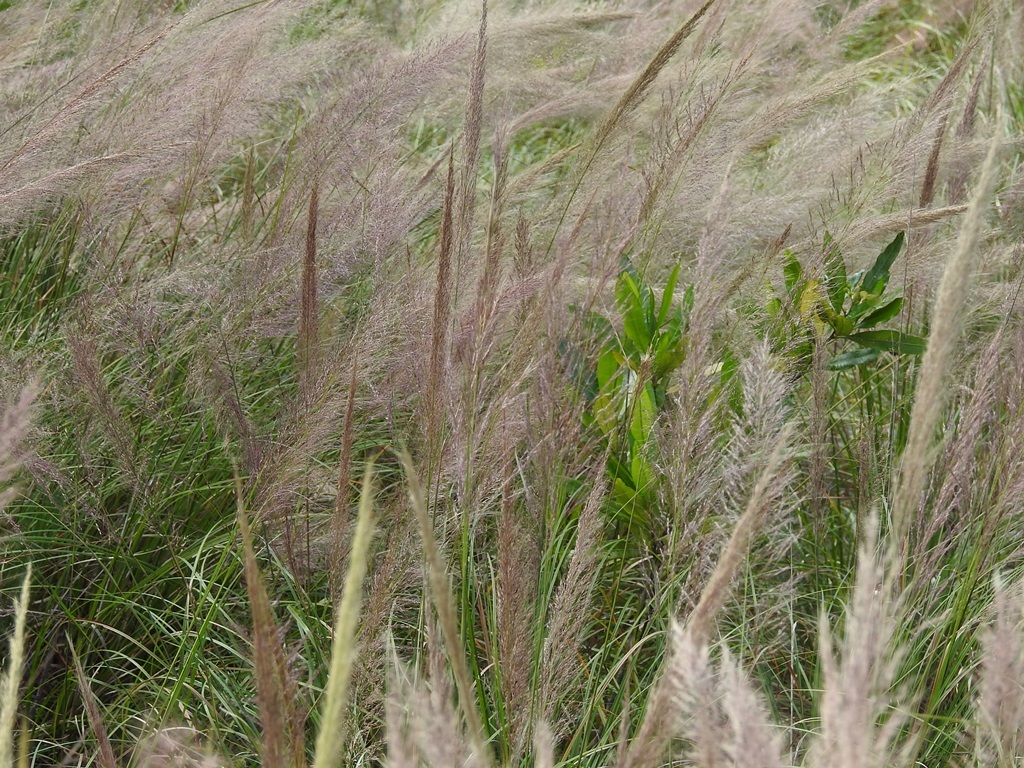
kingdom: Plantae
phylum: Tracheophyta
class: Liliopsida
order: Poales
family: Poaceae
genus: Muhlenbergia
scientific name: Muhlenbergia versicolor
